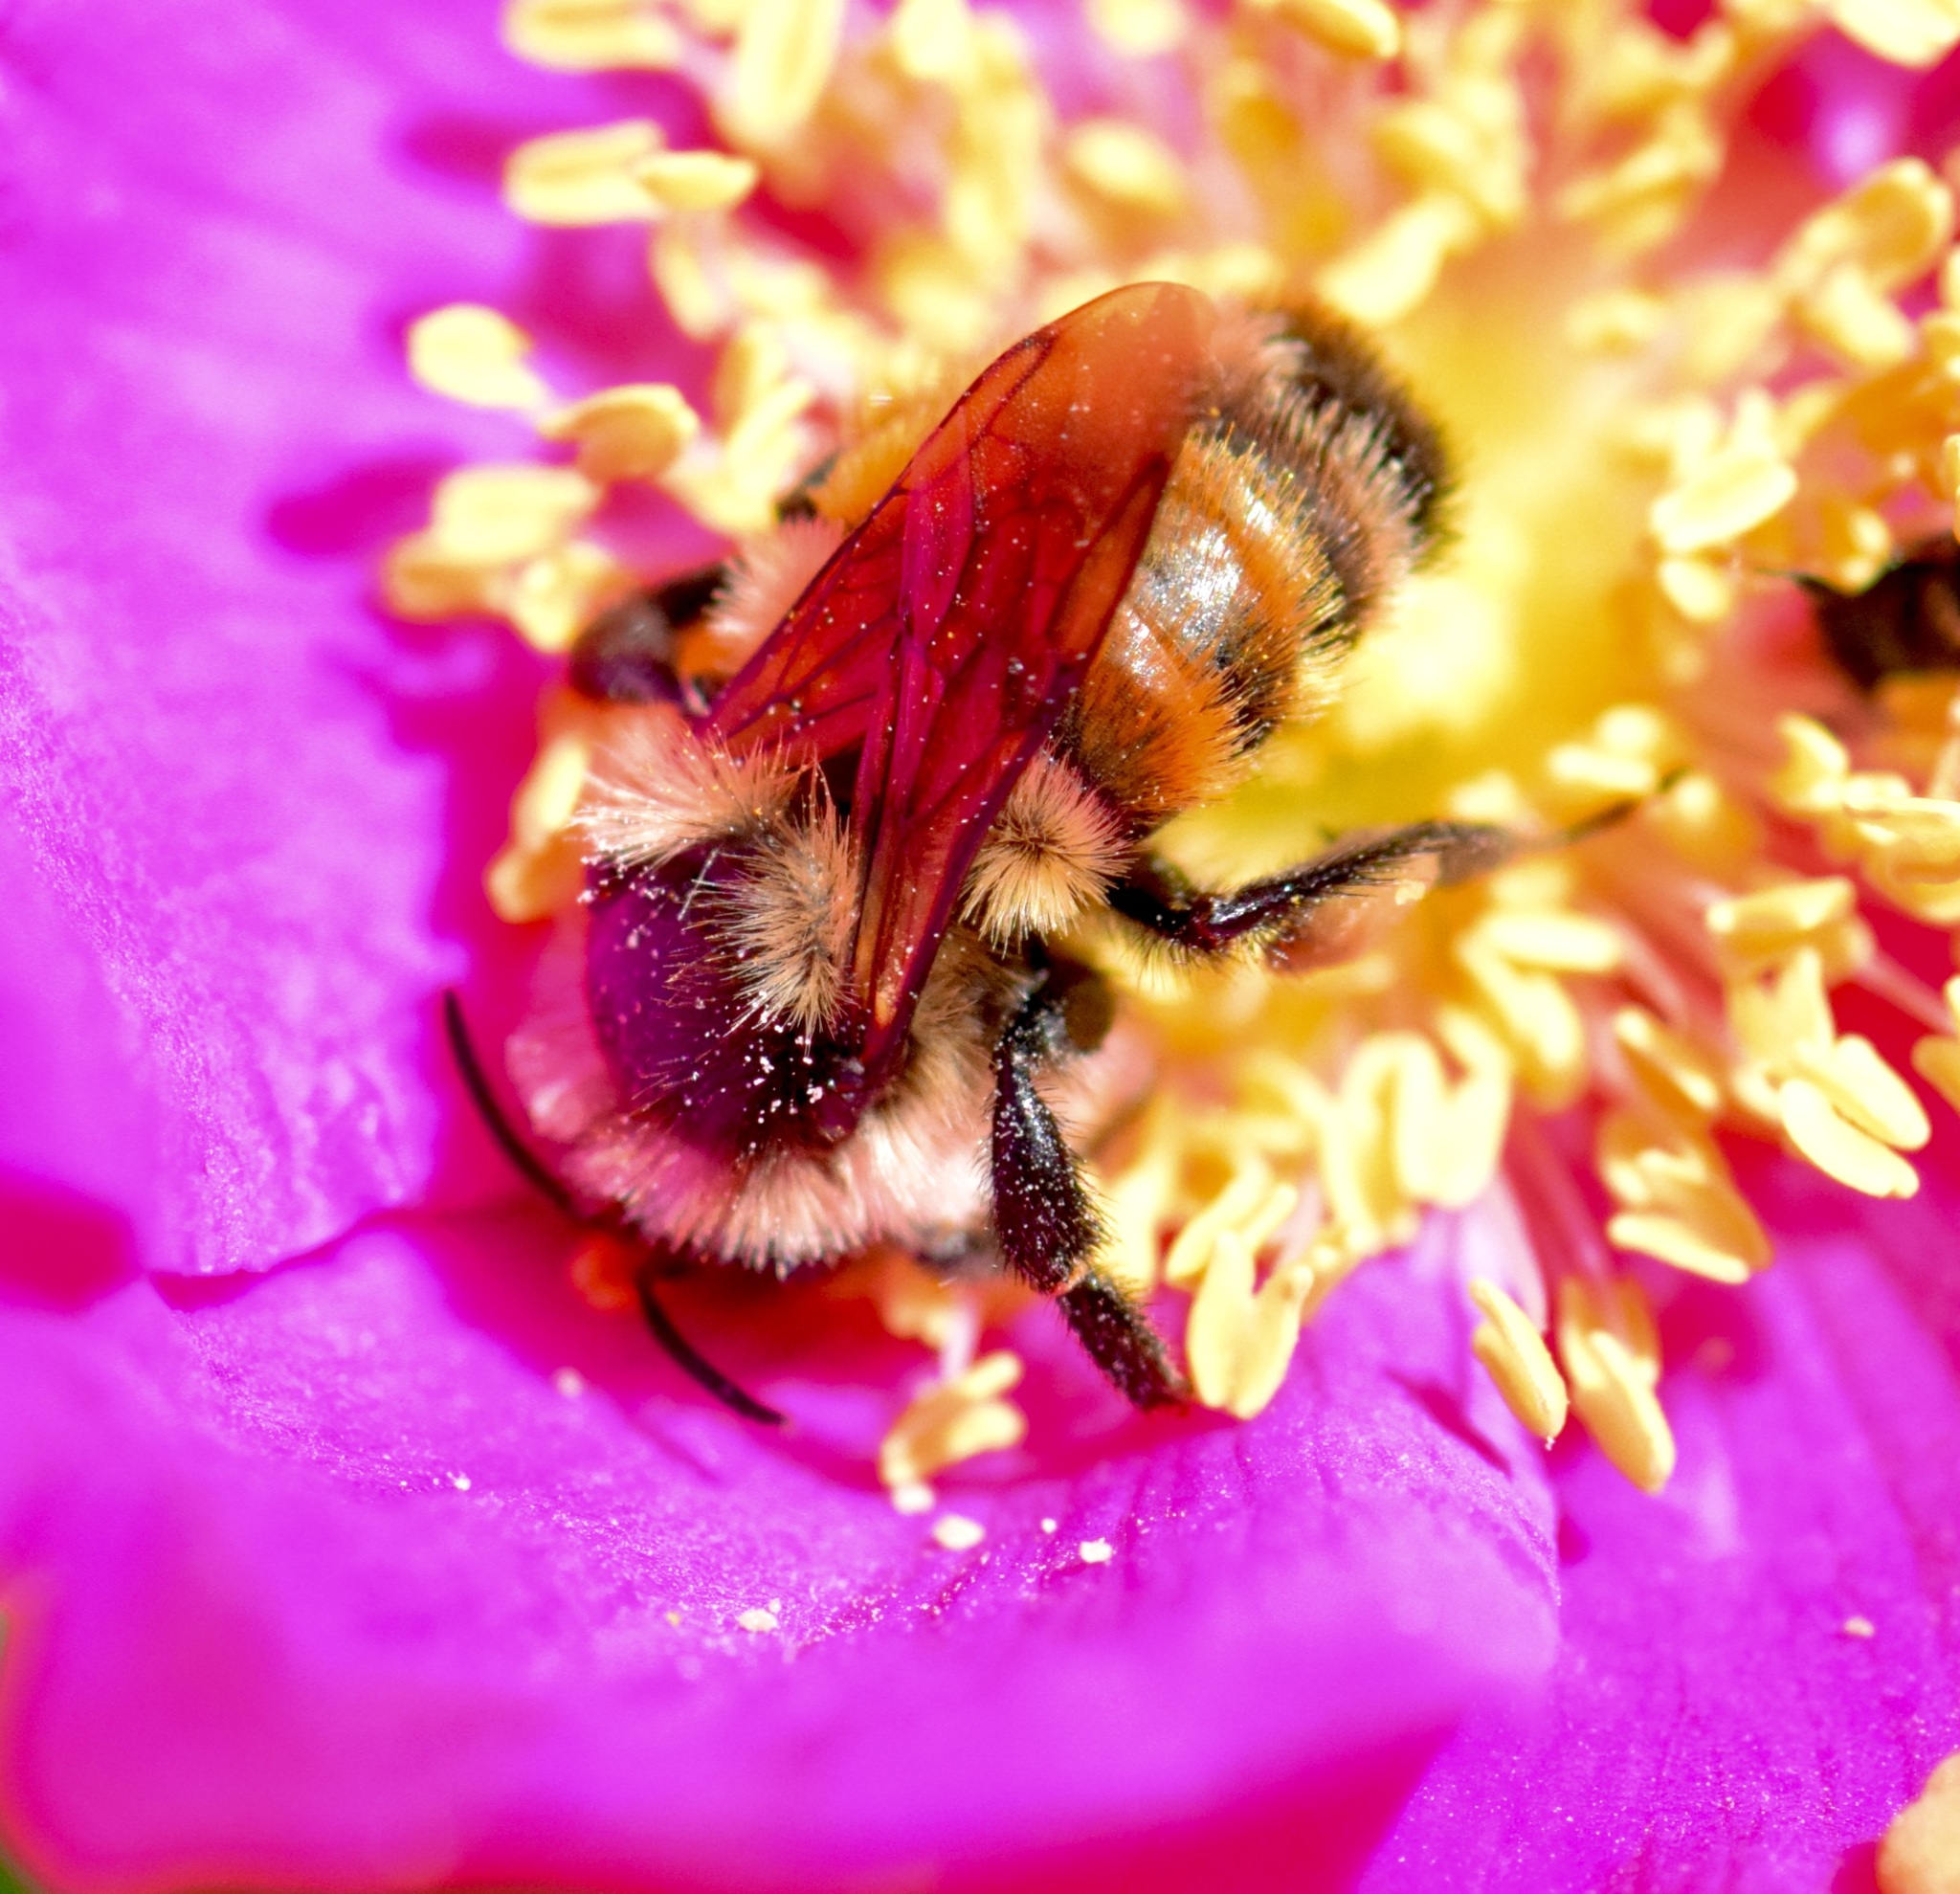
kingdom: Animalia
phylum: Arthropoda
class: Insecta
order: Hymenoptera
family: Apidae
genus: Bombus
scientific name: Bombus ternarius
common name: Tri-colored bumble bee
